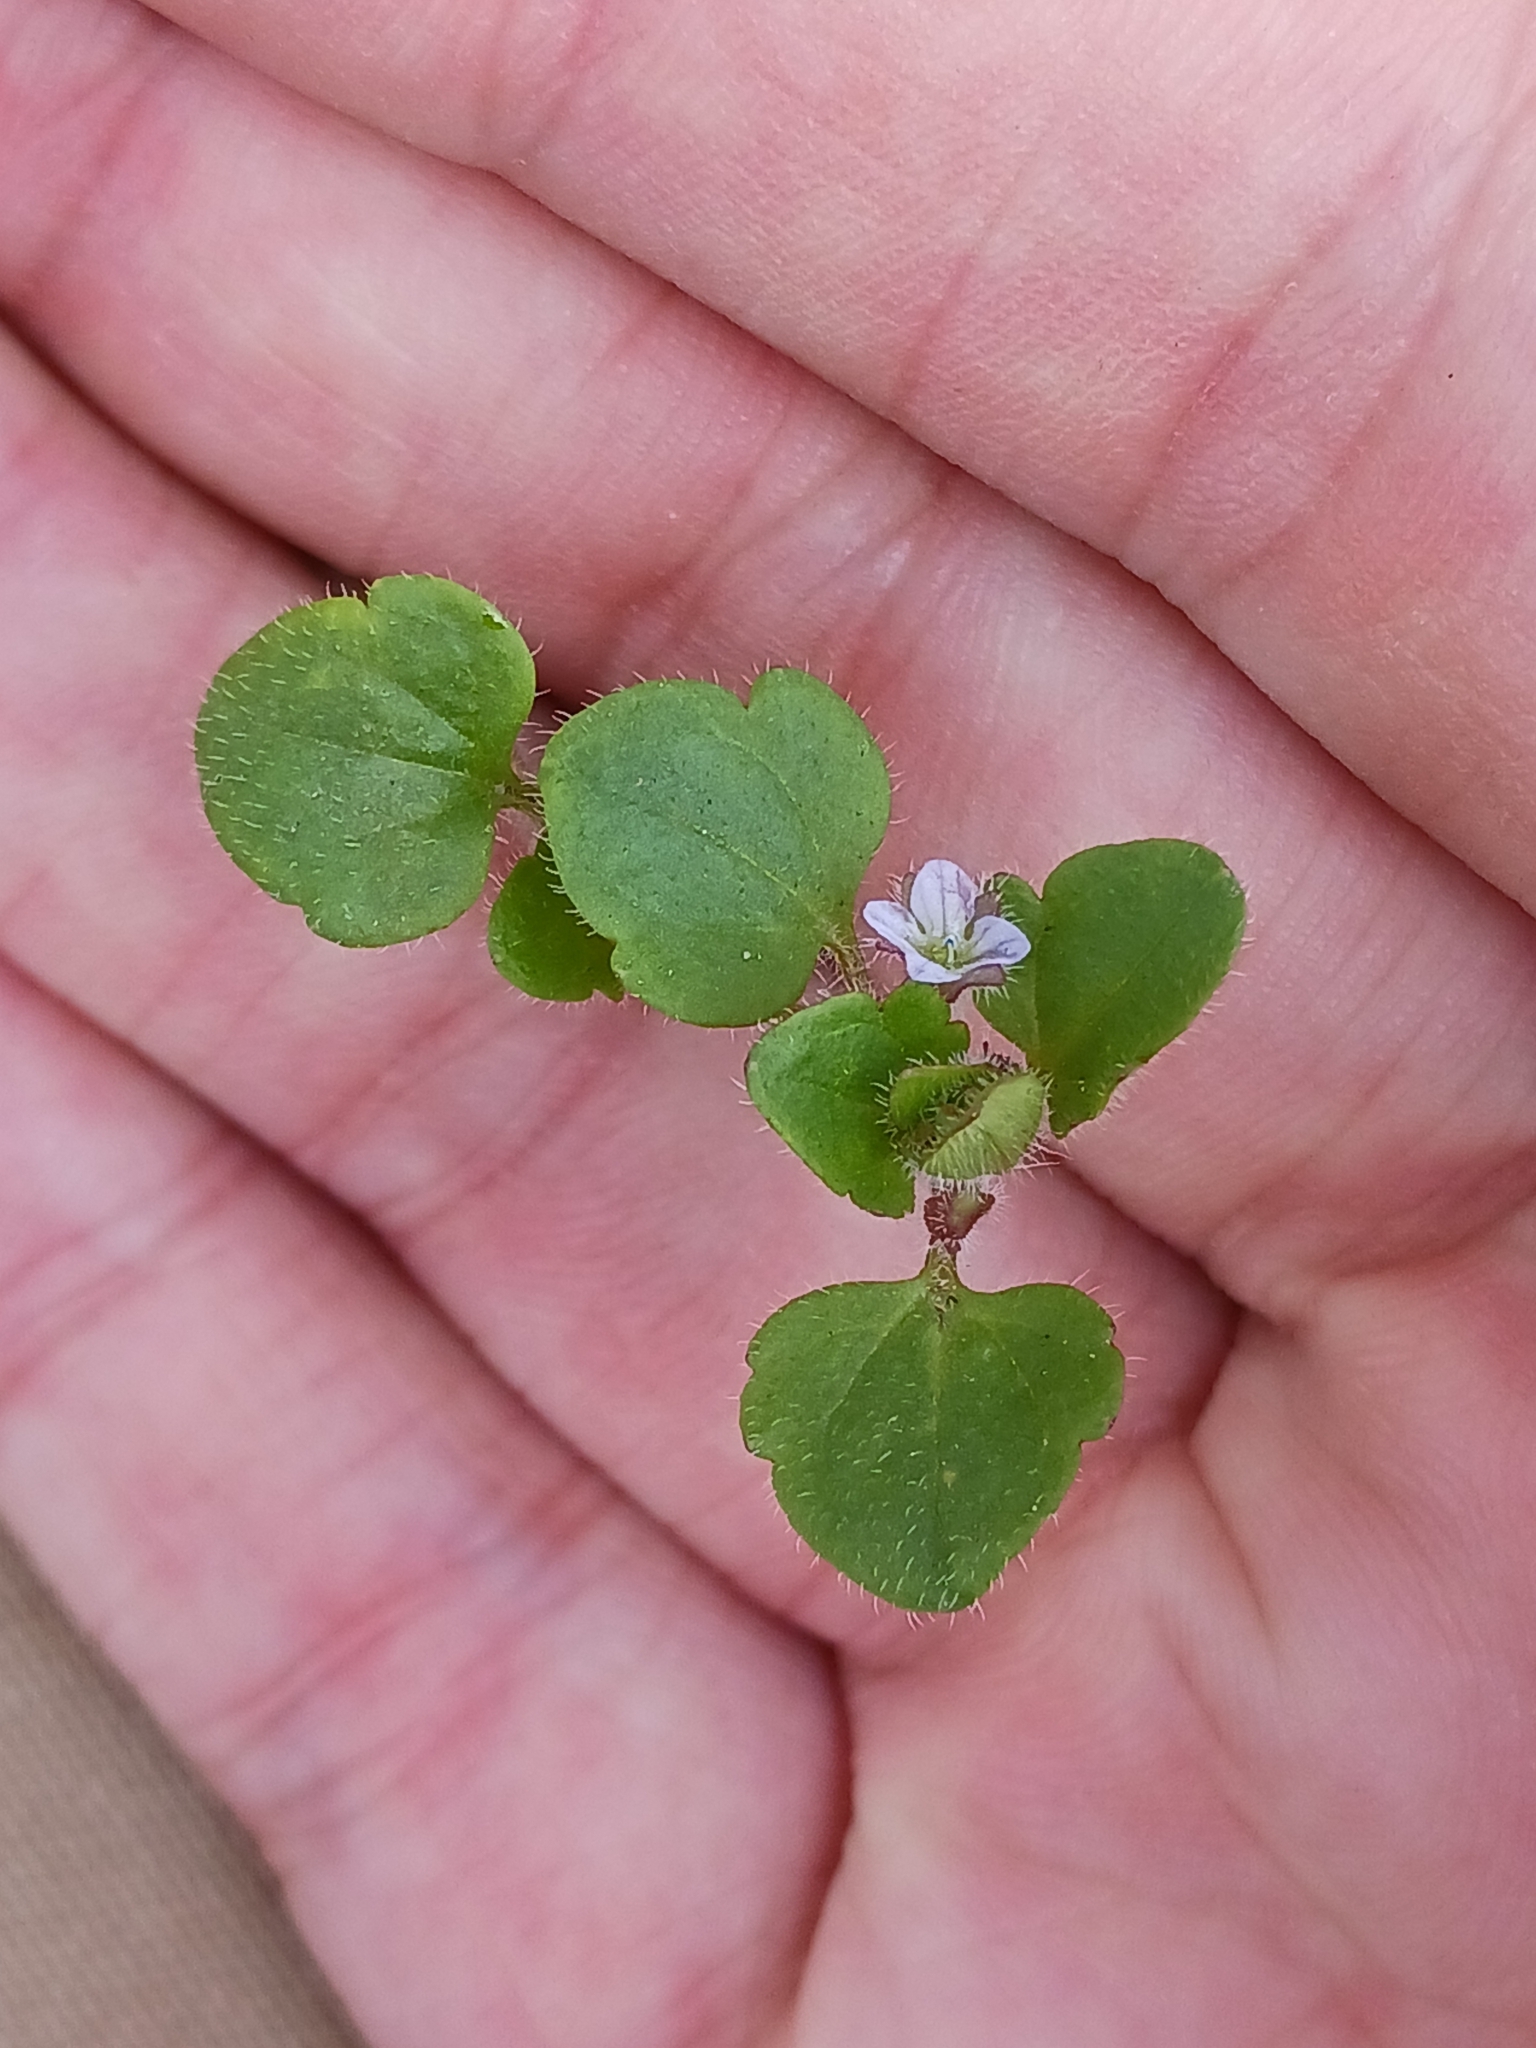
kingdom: Plantae
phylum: Tracheophyta
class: Magnoliopsida
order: Lamiales
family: Plantaginaceae
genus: Veronica
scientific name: Veronica sublobata
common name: False ivy-leaved speedwell
